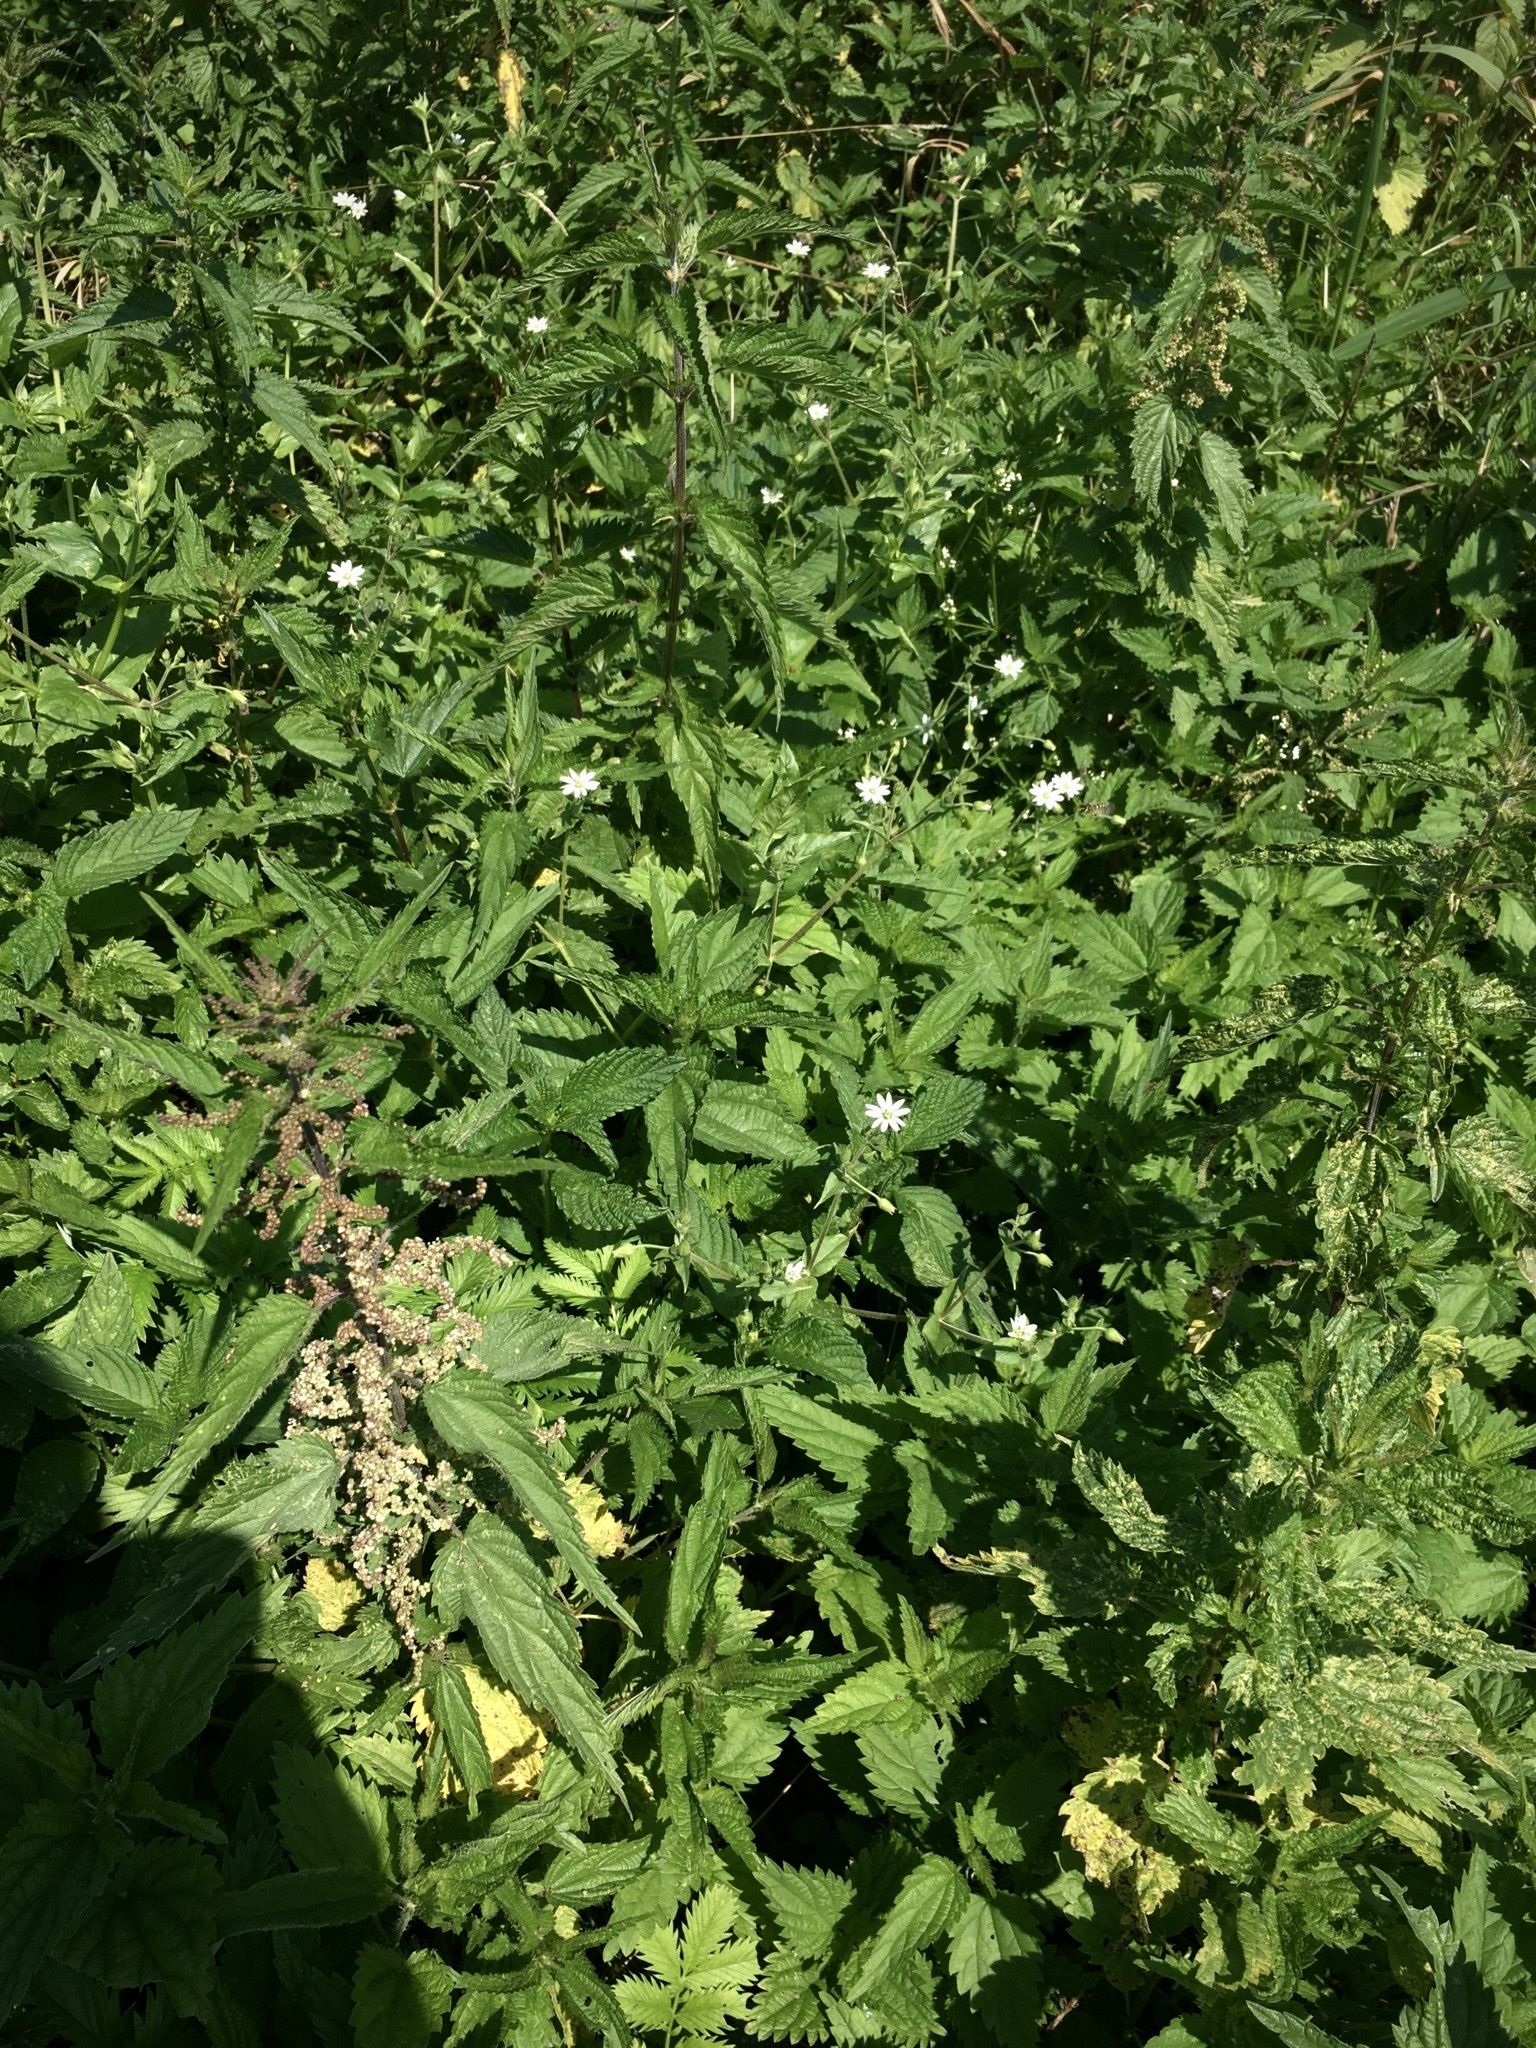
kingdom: Plantae
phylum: Tracheophyta
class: Magnoliopsida
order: Caryophyllales
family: Caryophyllaceae
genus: Stellaria
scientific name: Stellaria aquatica
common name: Water chickweed
